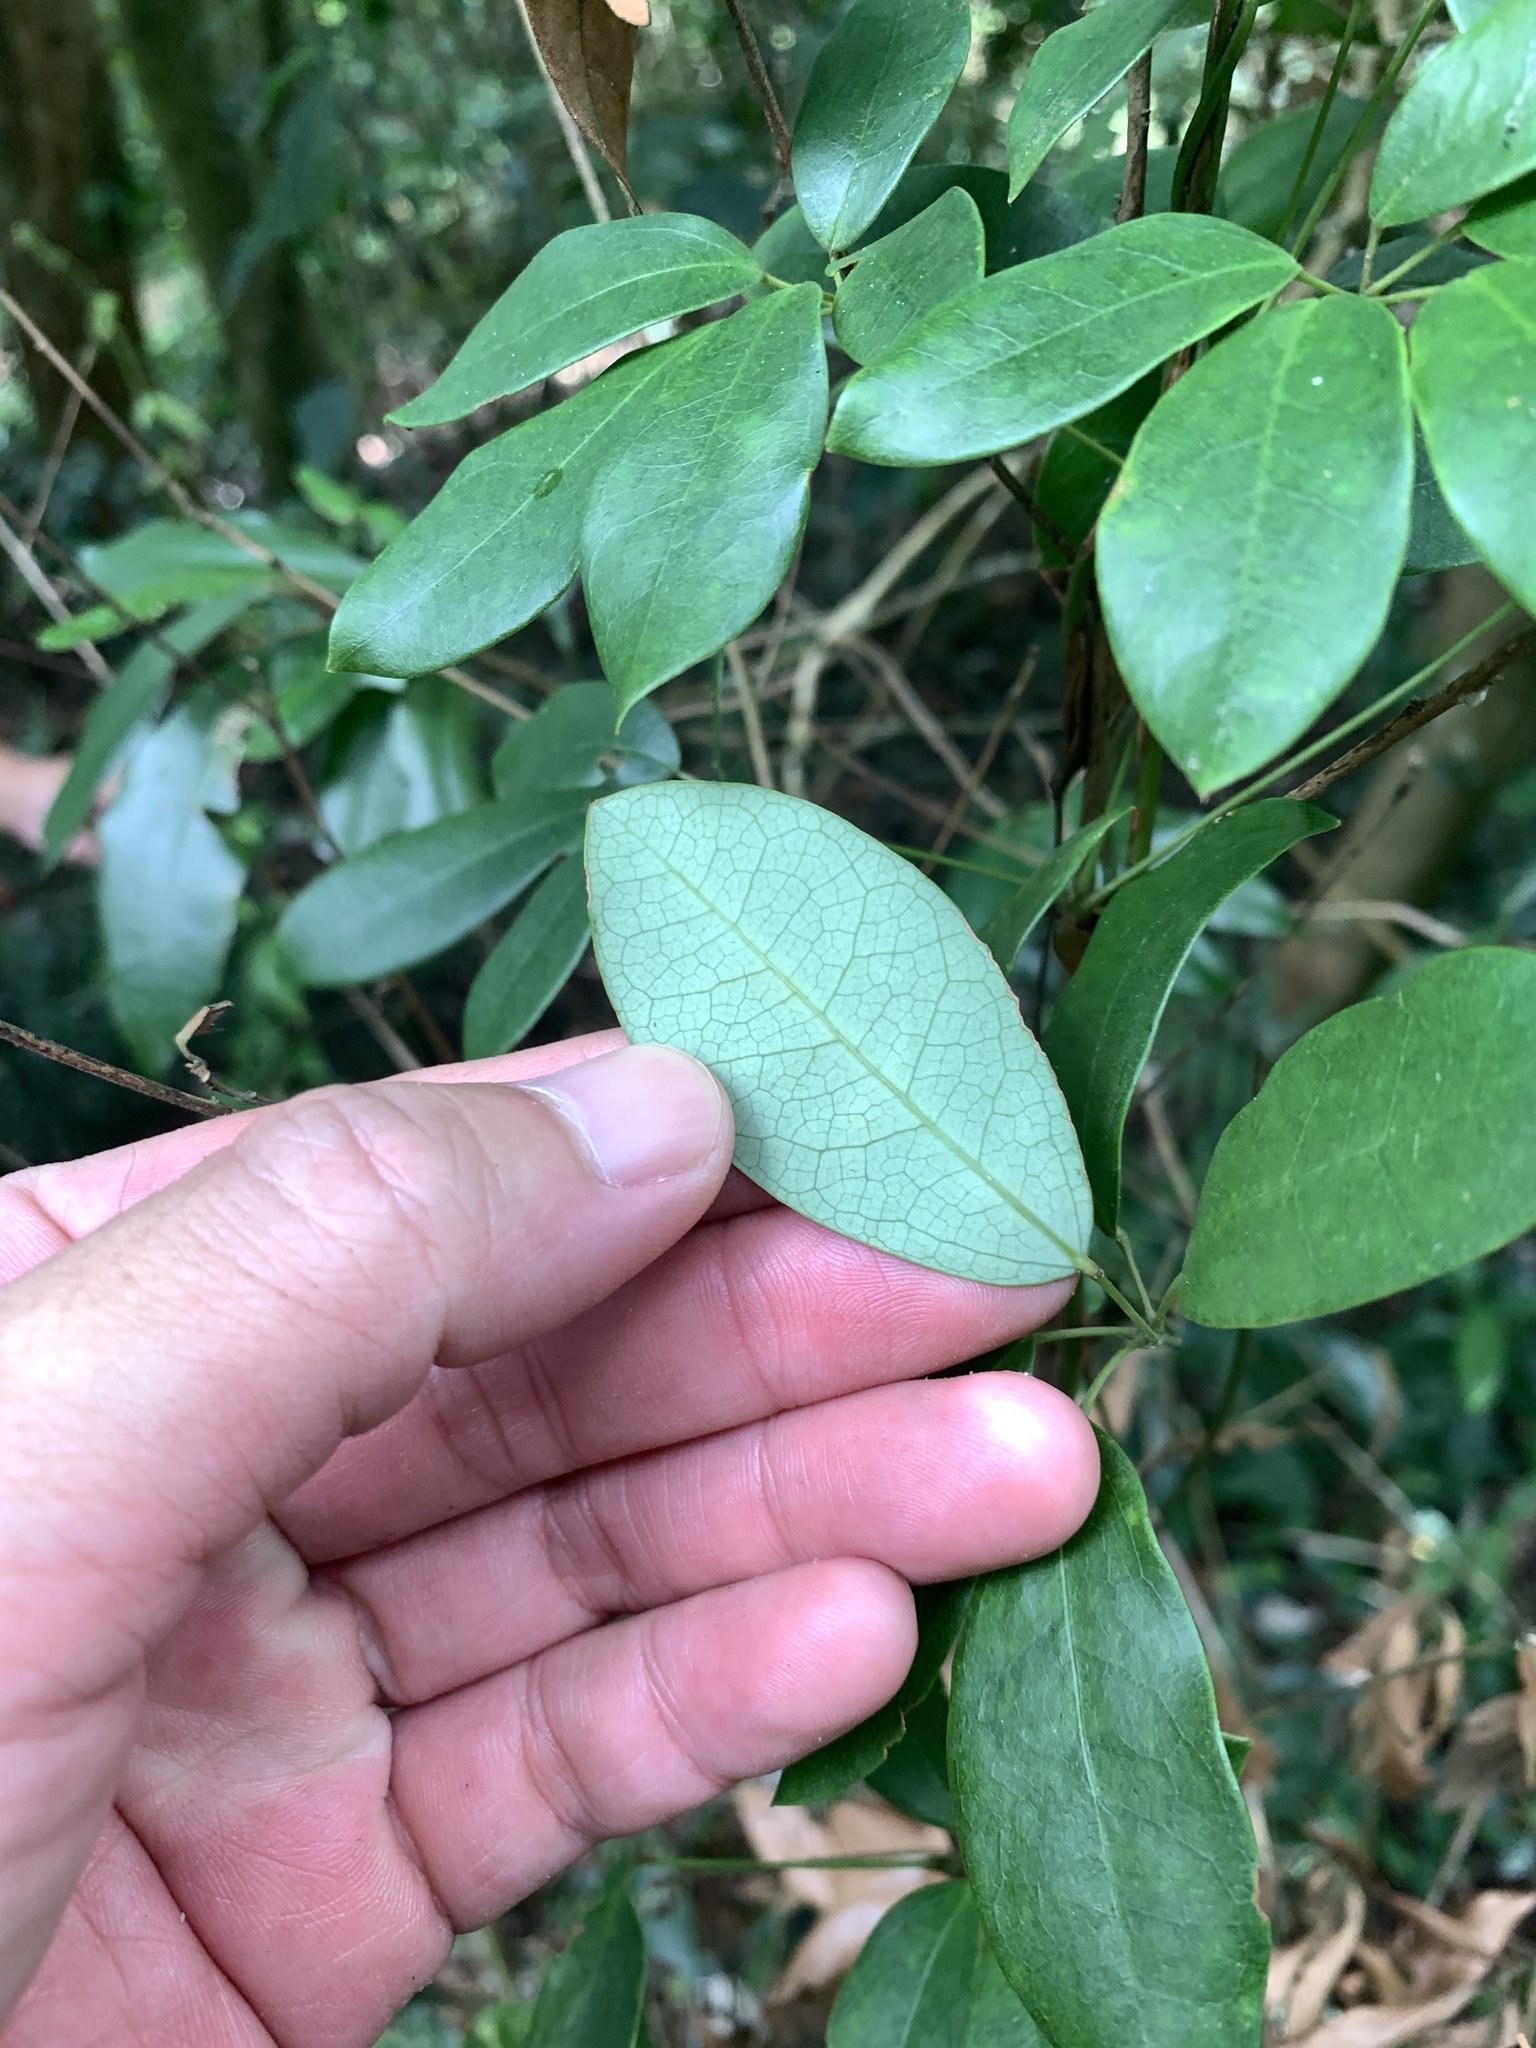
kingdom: Plantae
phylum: Tracheophyta
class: Magnoliopsida
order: Ranunculales
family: Lardizabalaceae
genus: Stauntonia
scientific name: Stauntonia obovata
